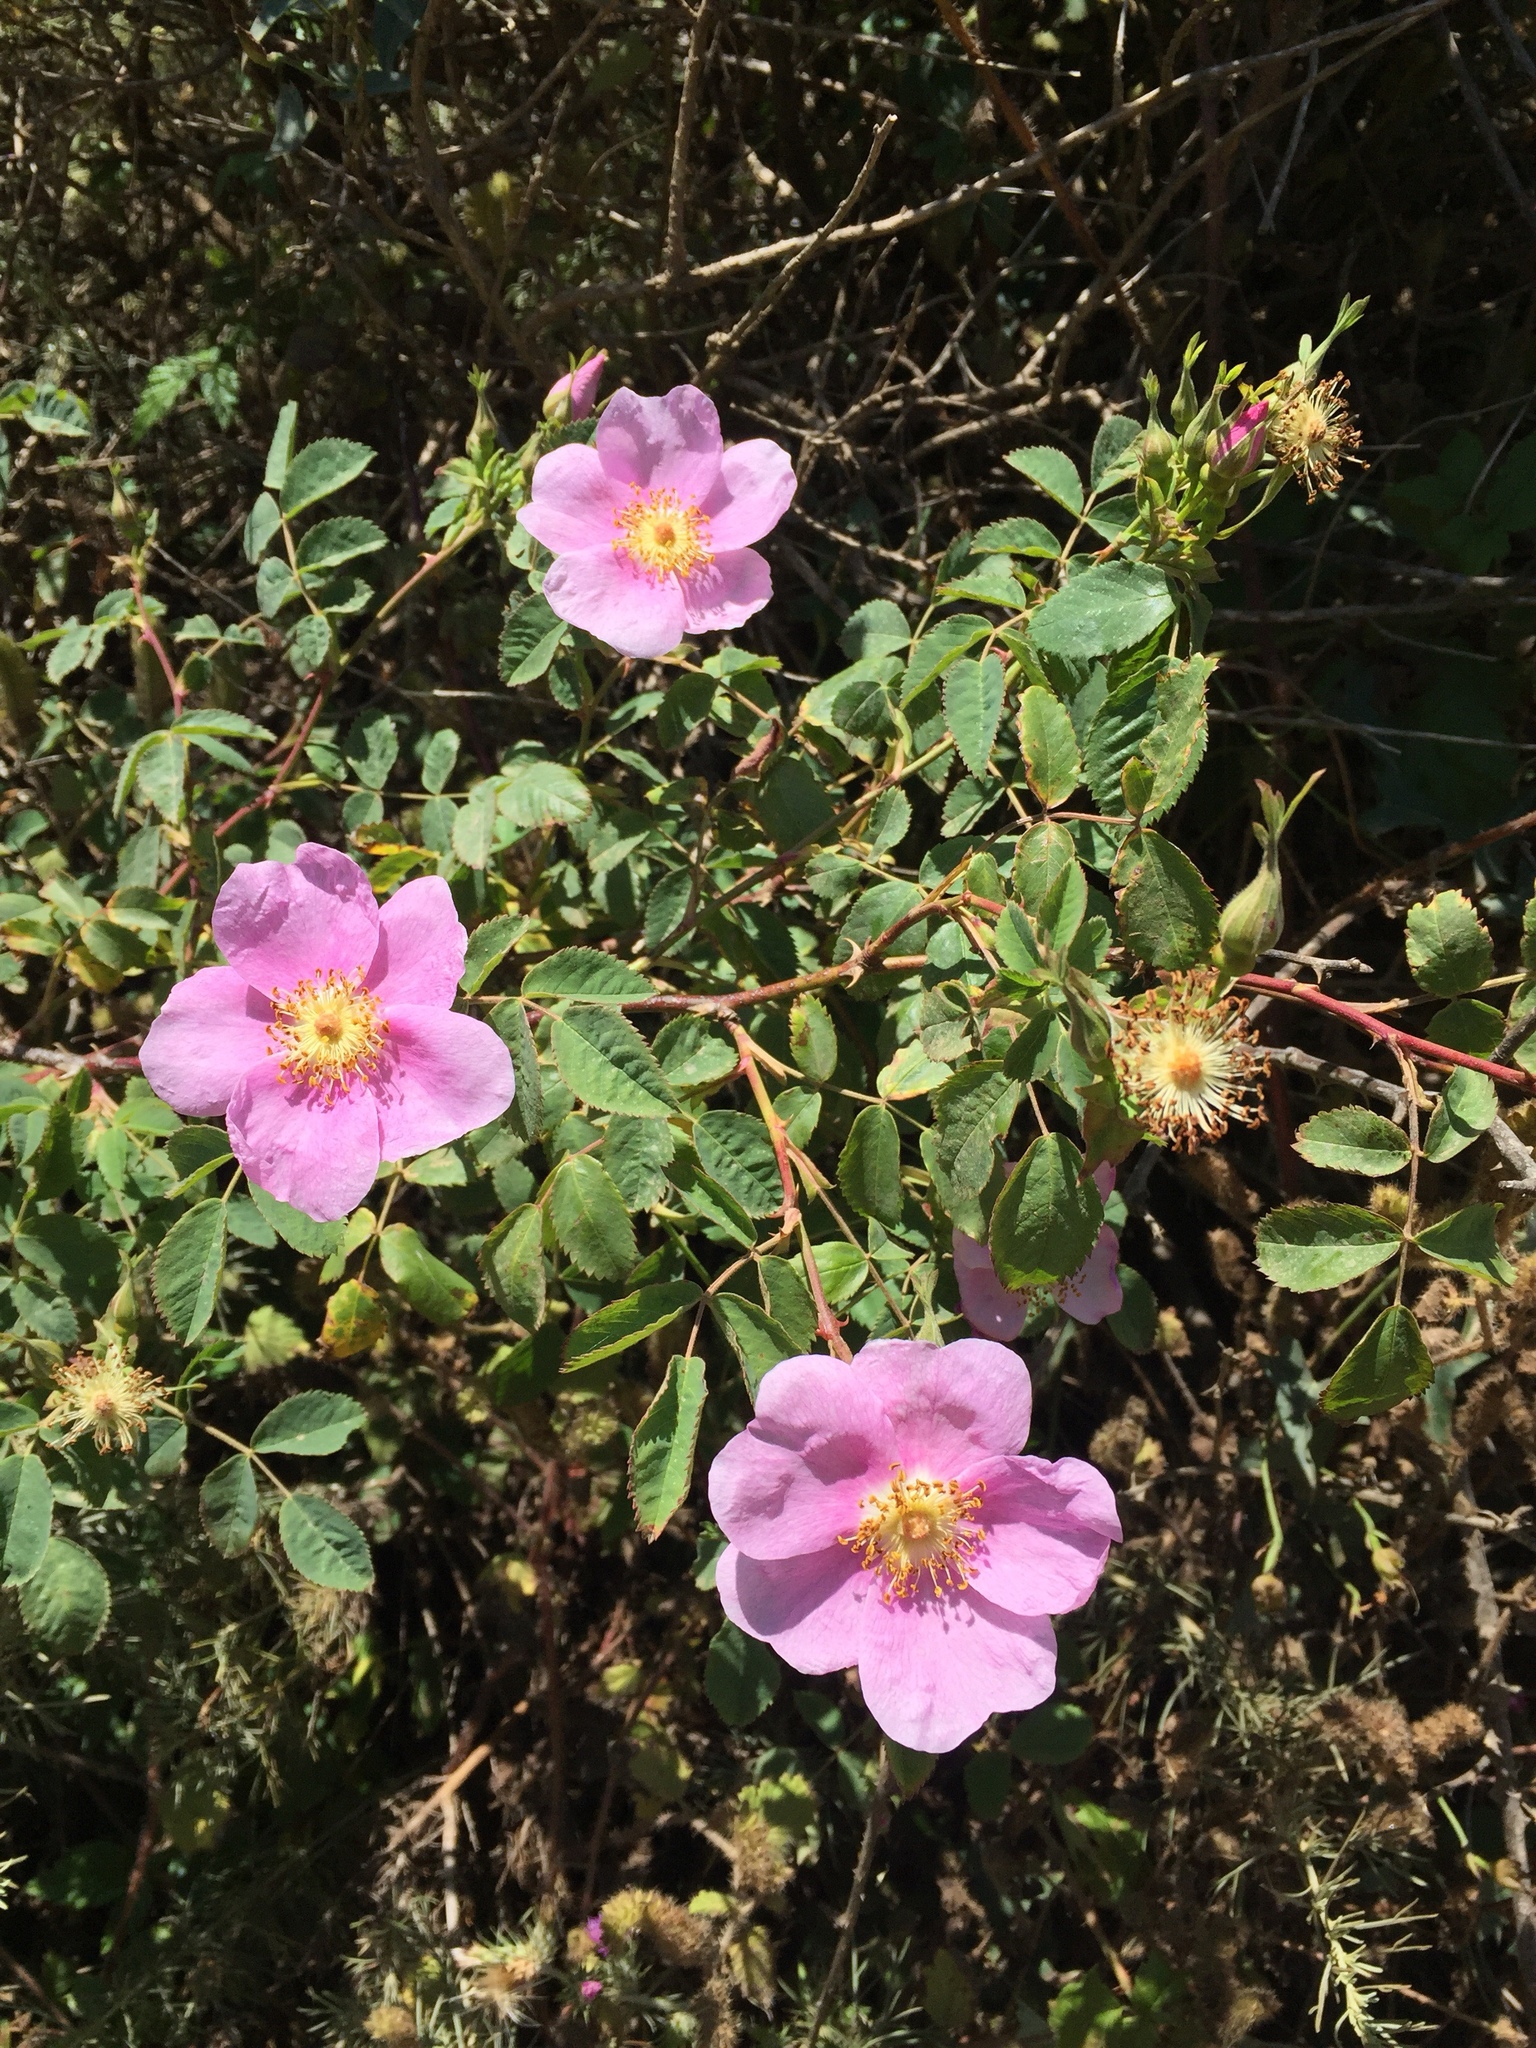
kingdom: Plantae
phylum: Tracheophyta
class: Magnoliopsida
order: Rosales
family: Rosaceae
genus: Rosa
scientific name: Rosa nutkana
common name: Nootka rose
